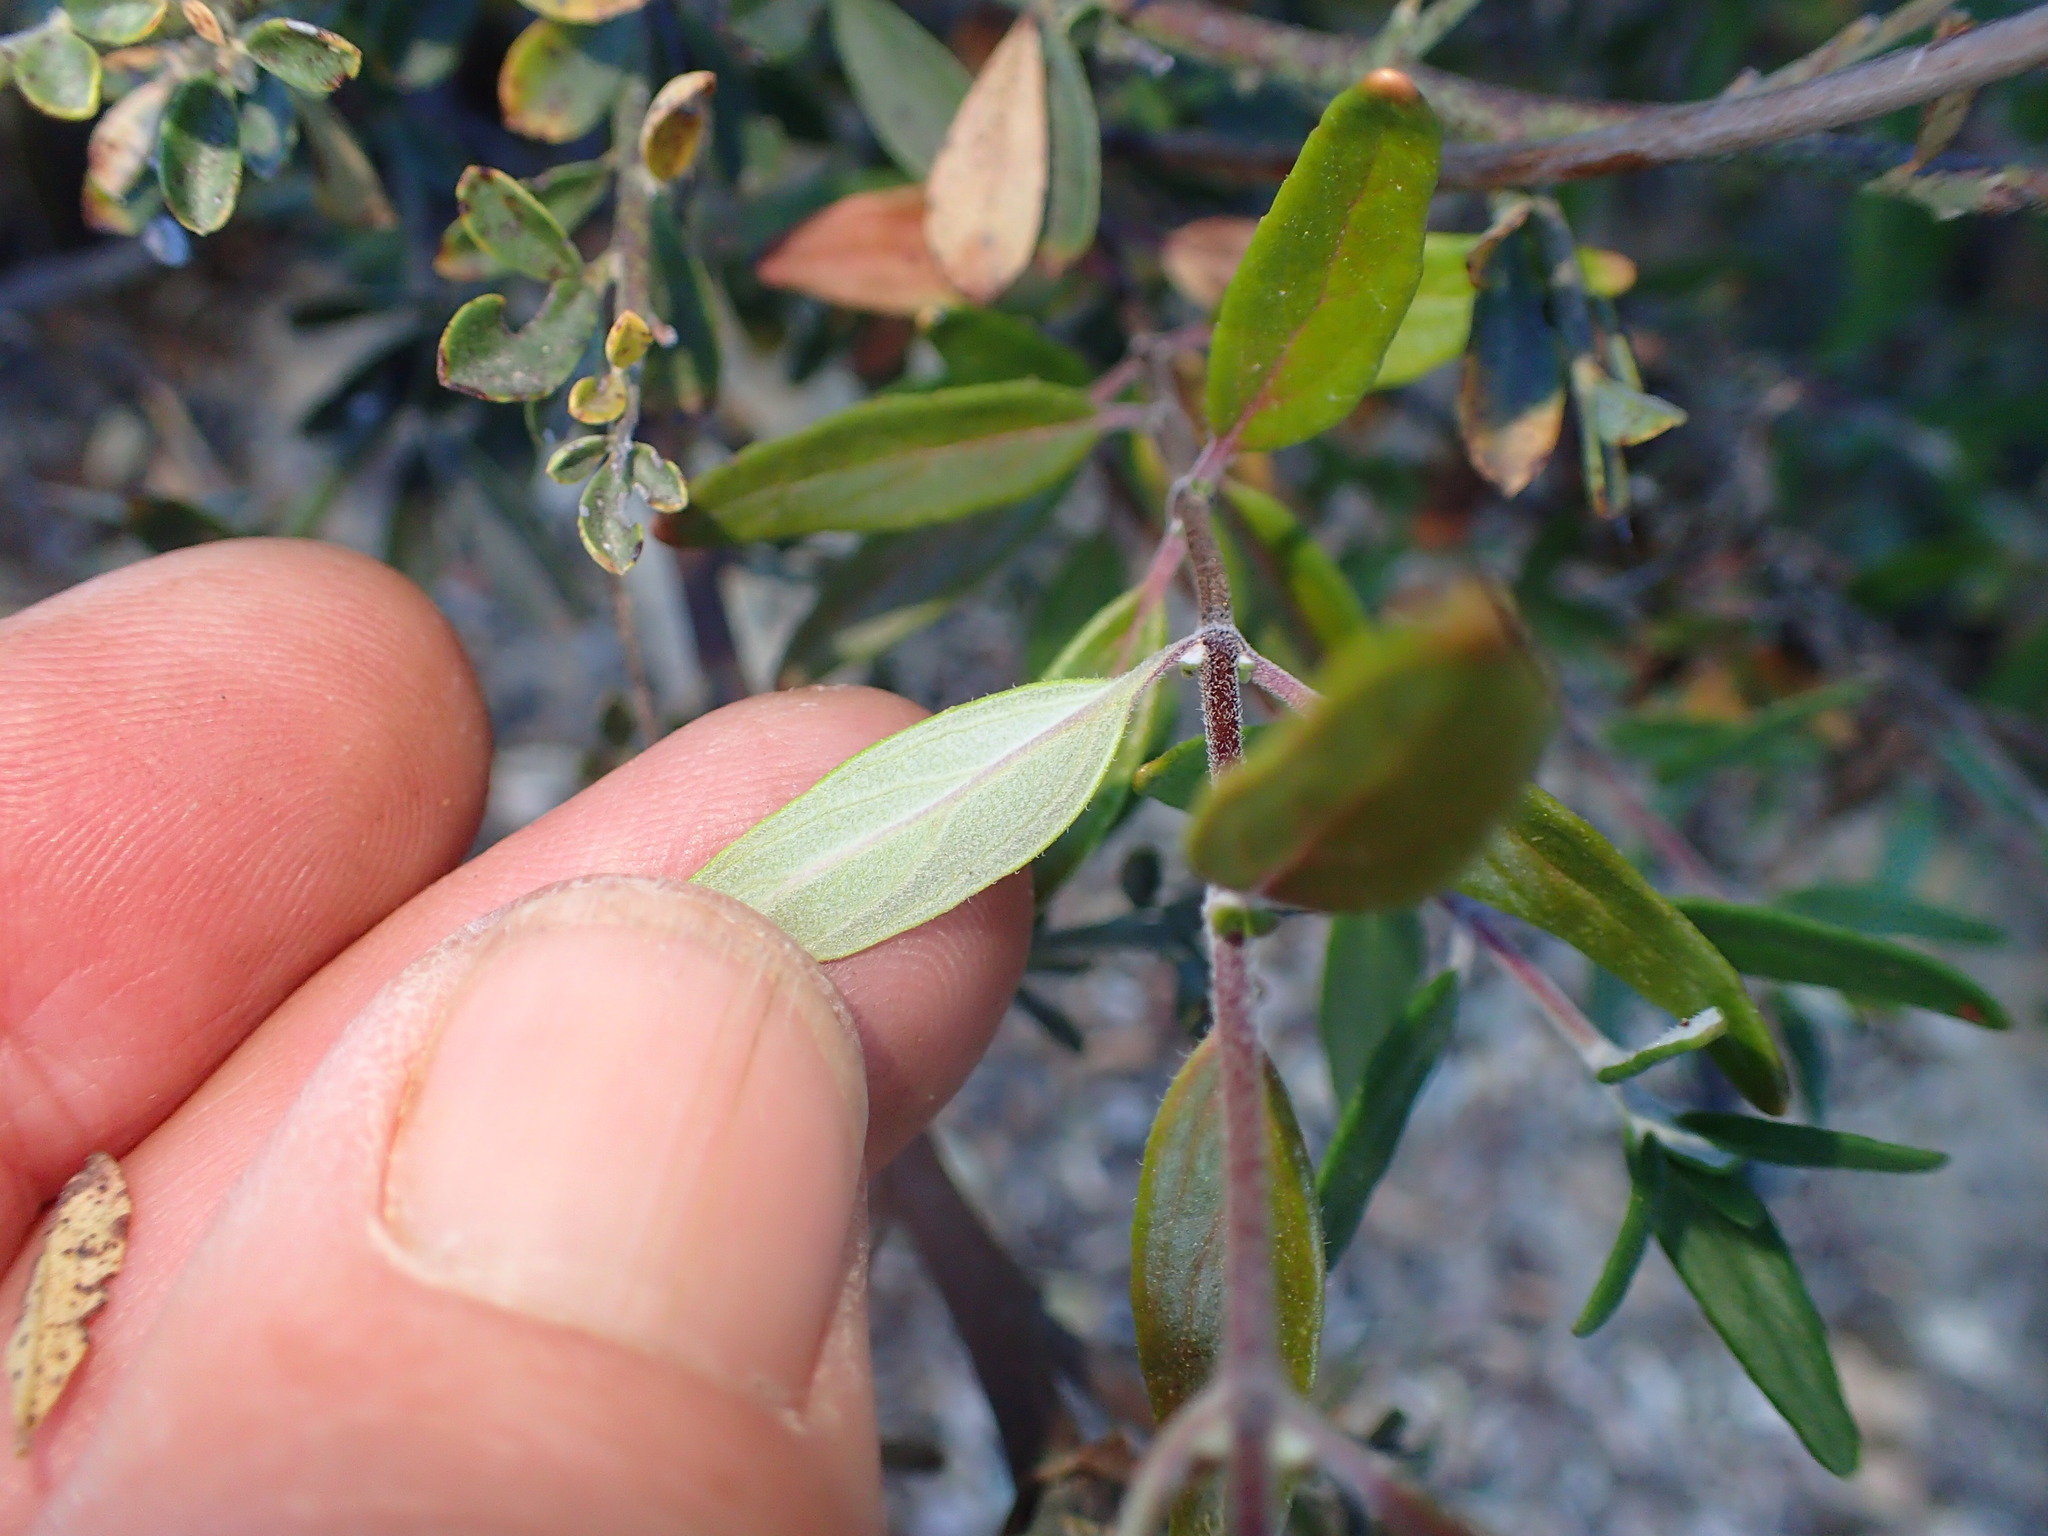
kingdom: Plantae
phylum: Tracheophyta
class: Magnoliopsida
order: Lamiales
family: Lamiaceae
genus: Monardella
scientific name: Monardella hypoleuca
